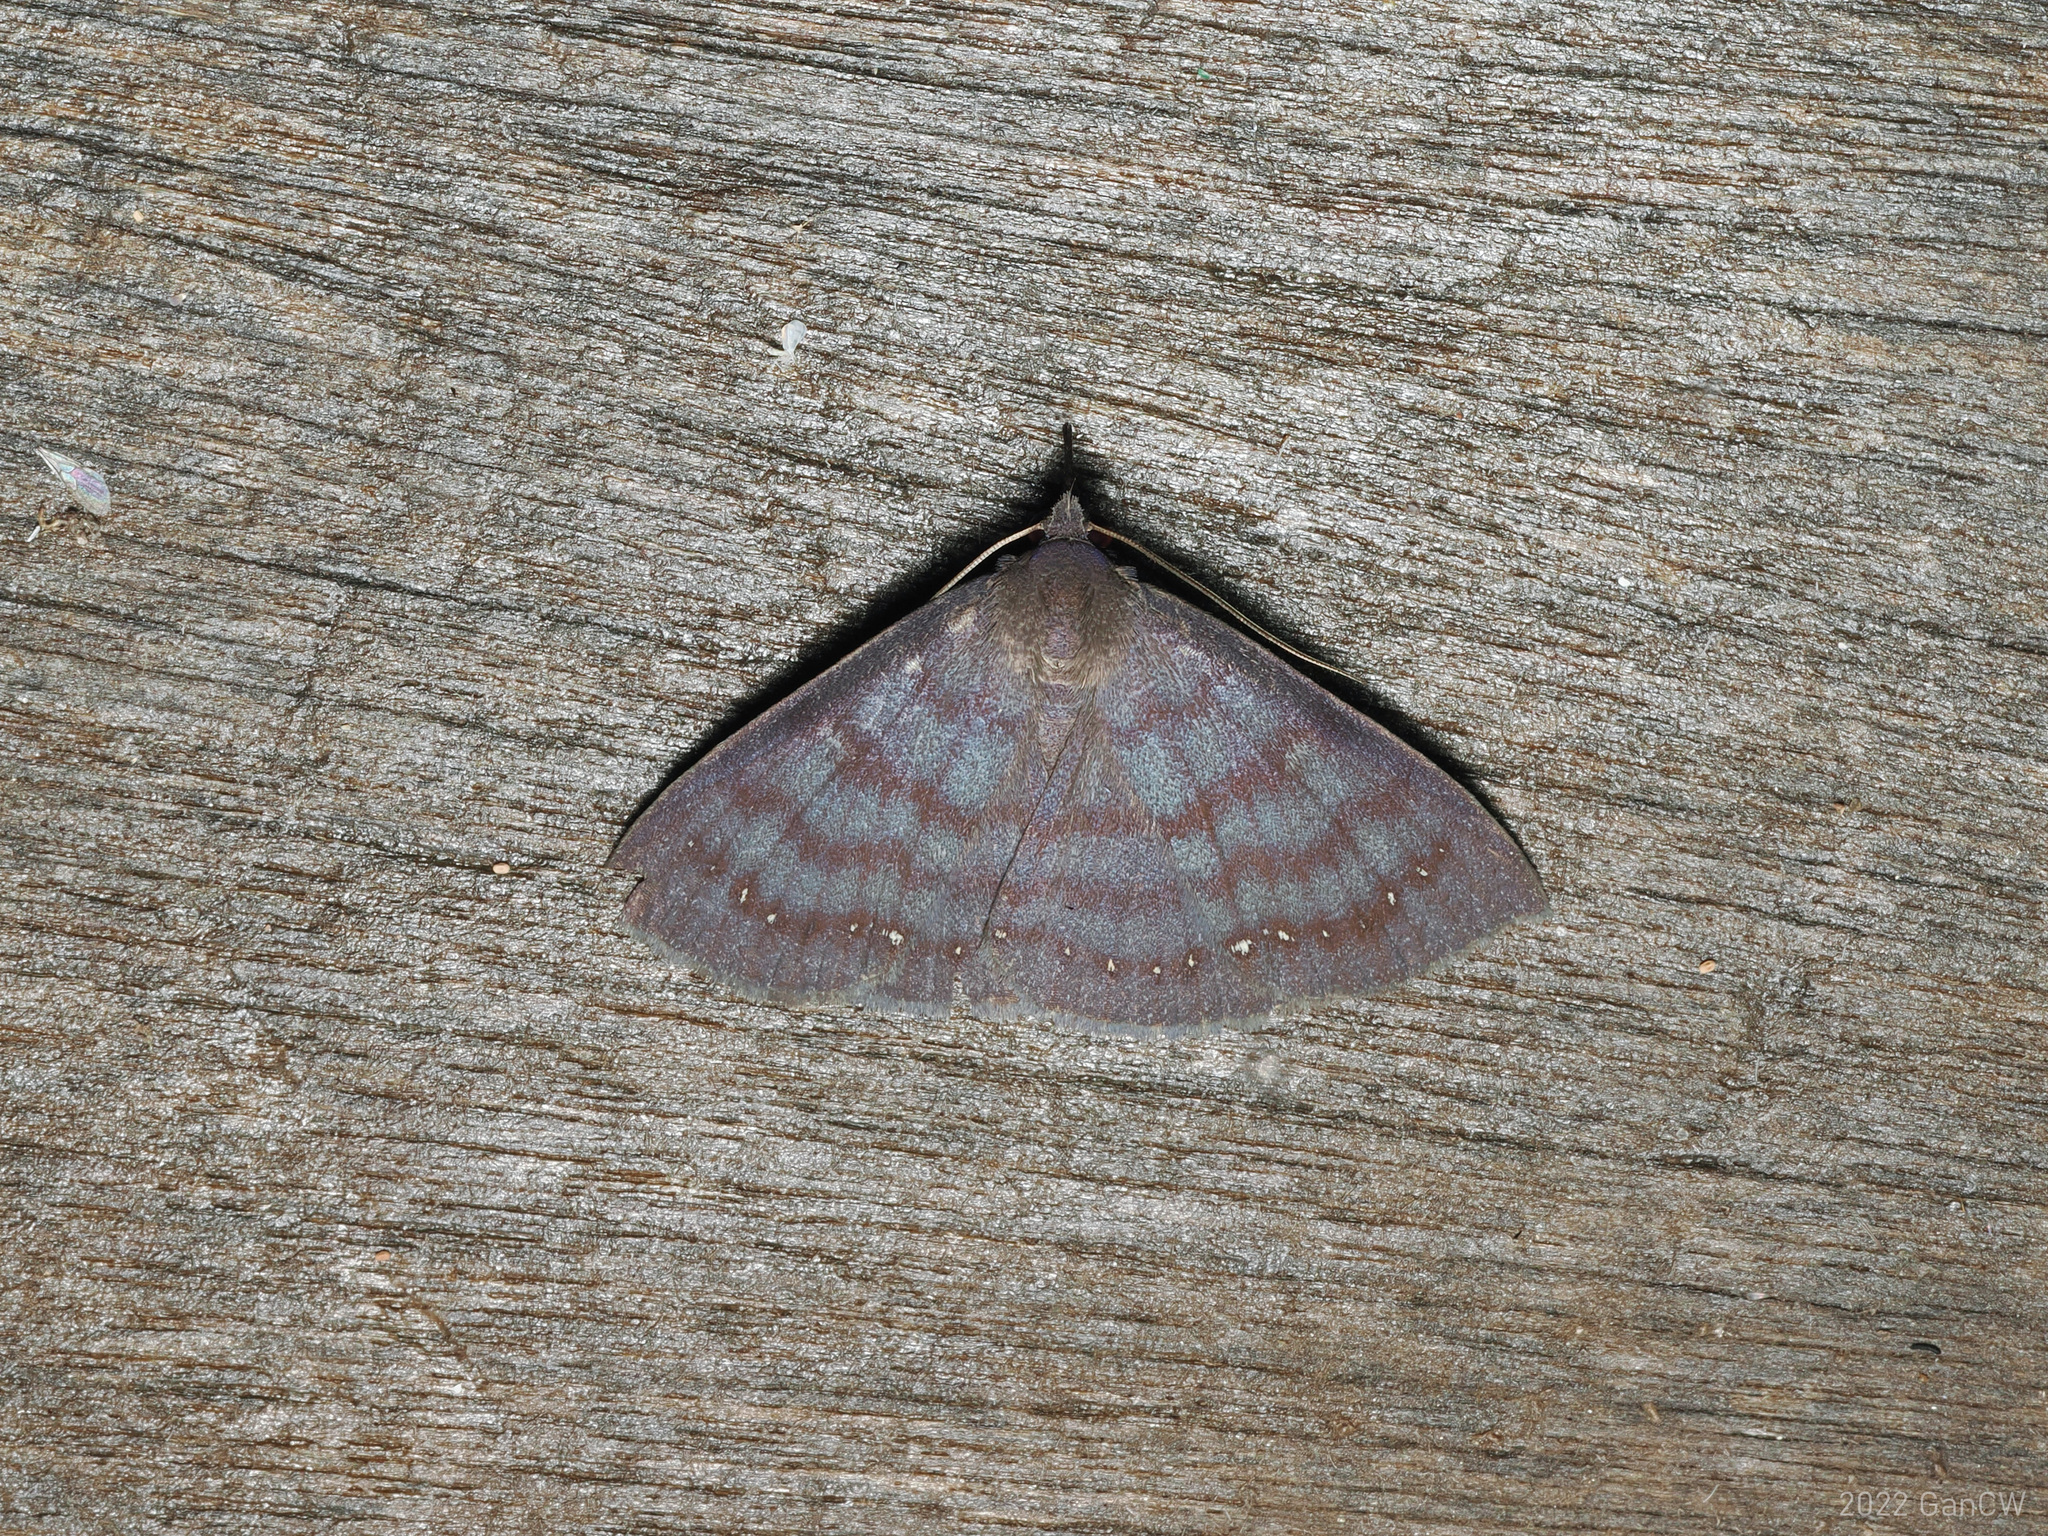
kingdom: Animalia
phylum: Arthropoda
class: Insecta
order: Lepidoptera
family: Erebidae
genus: Rhynchodina
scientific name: Rhynchodina molybdota
